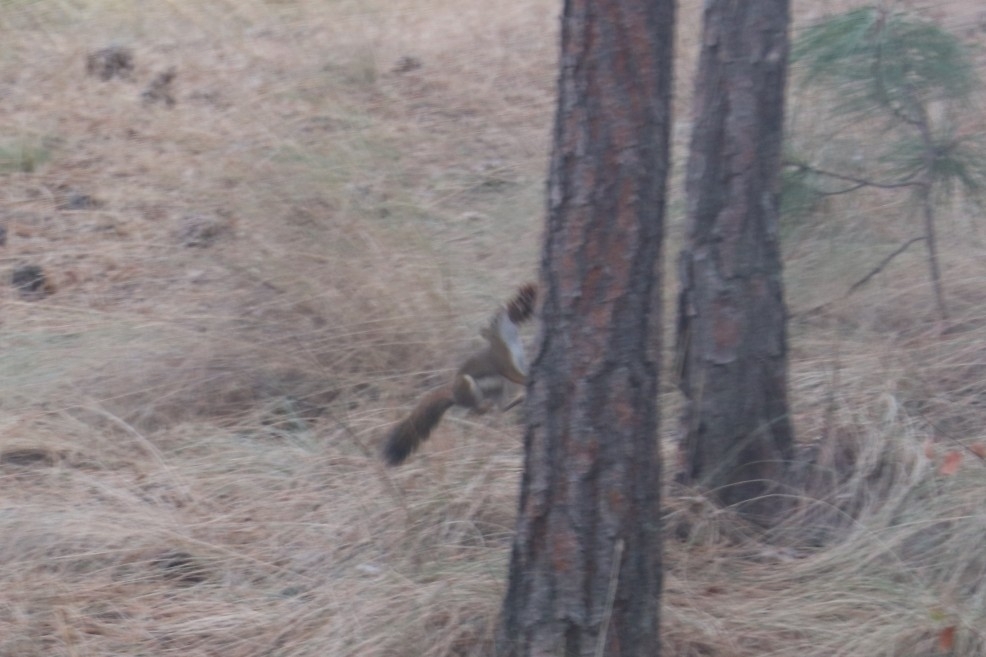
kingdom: Animalia
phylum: Chordata
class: Mammalia
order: Rodentia
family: Sciuridae
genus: Tamiasciurus
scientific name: Tamiasciurus hudsonicus
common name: Red squirrel
